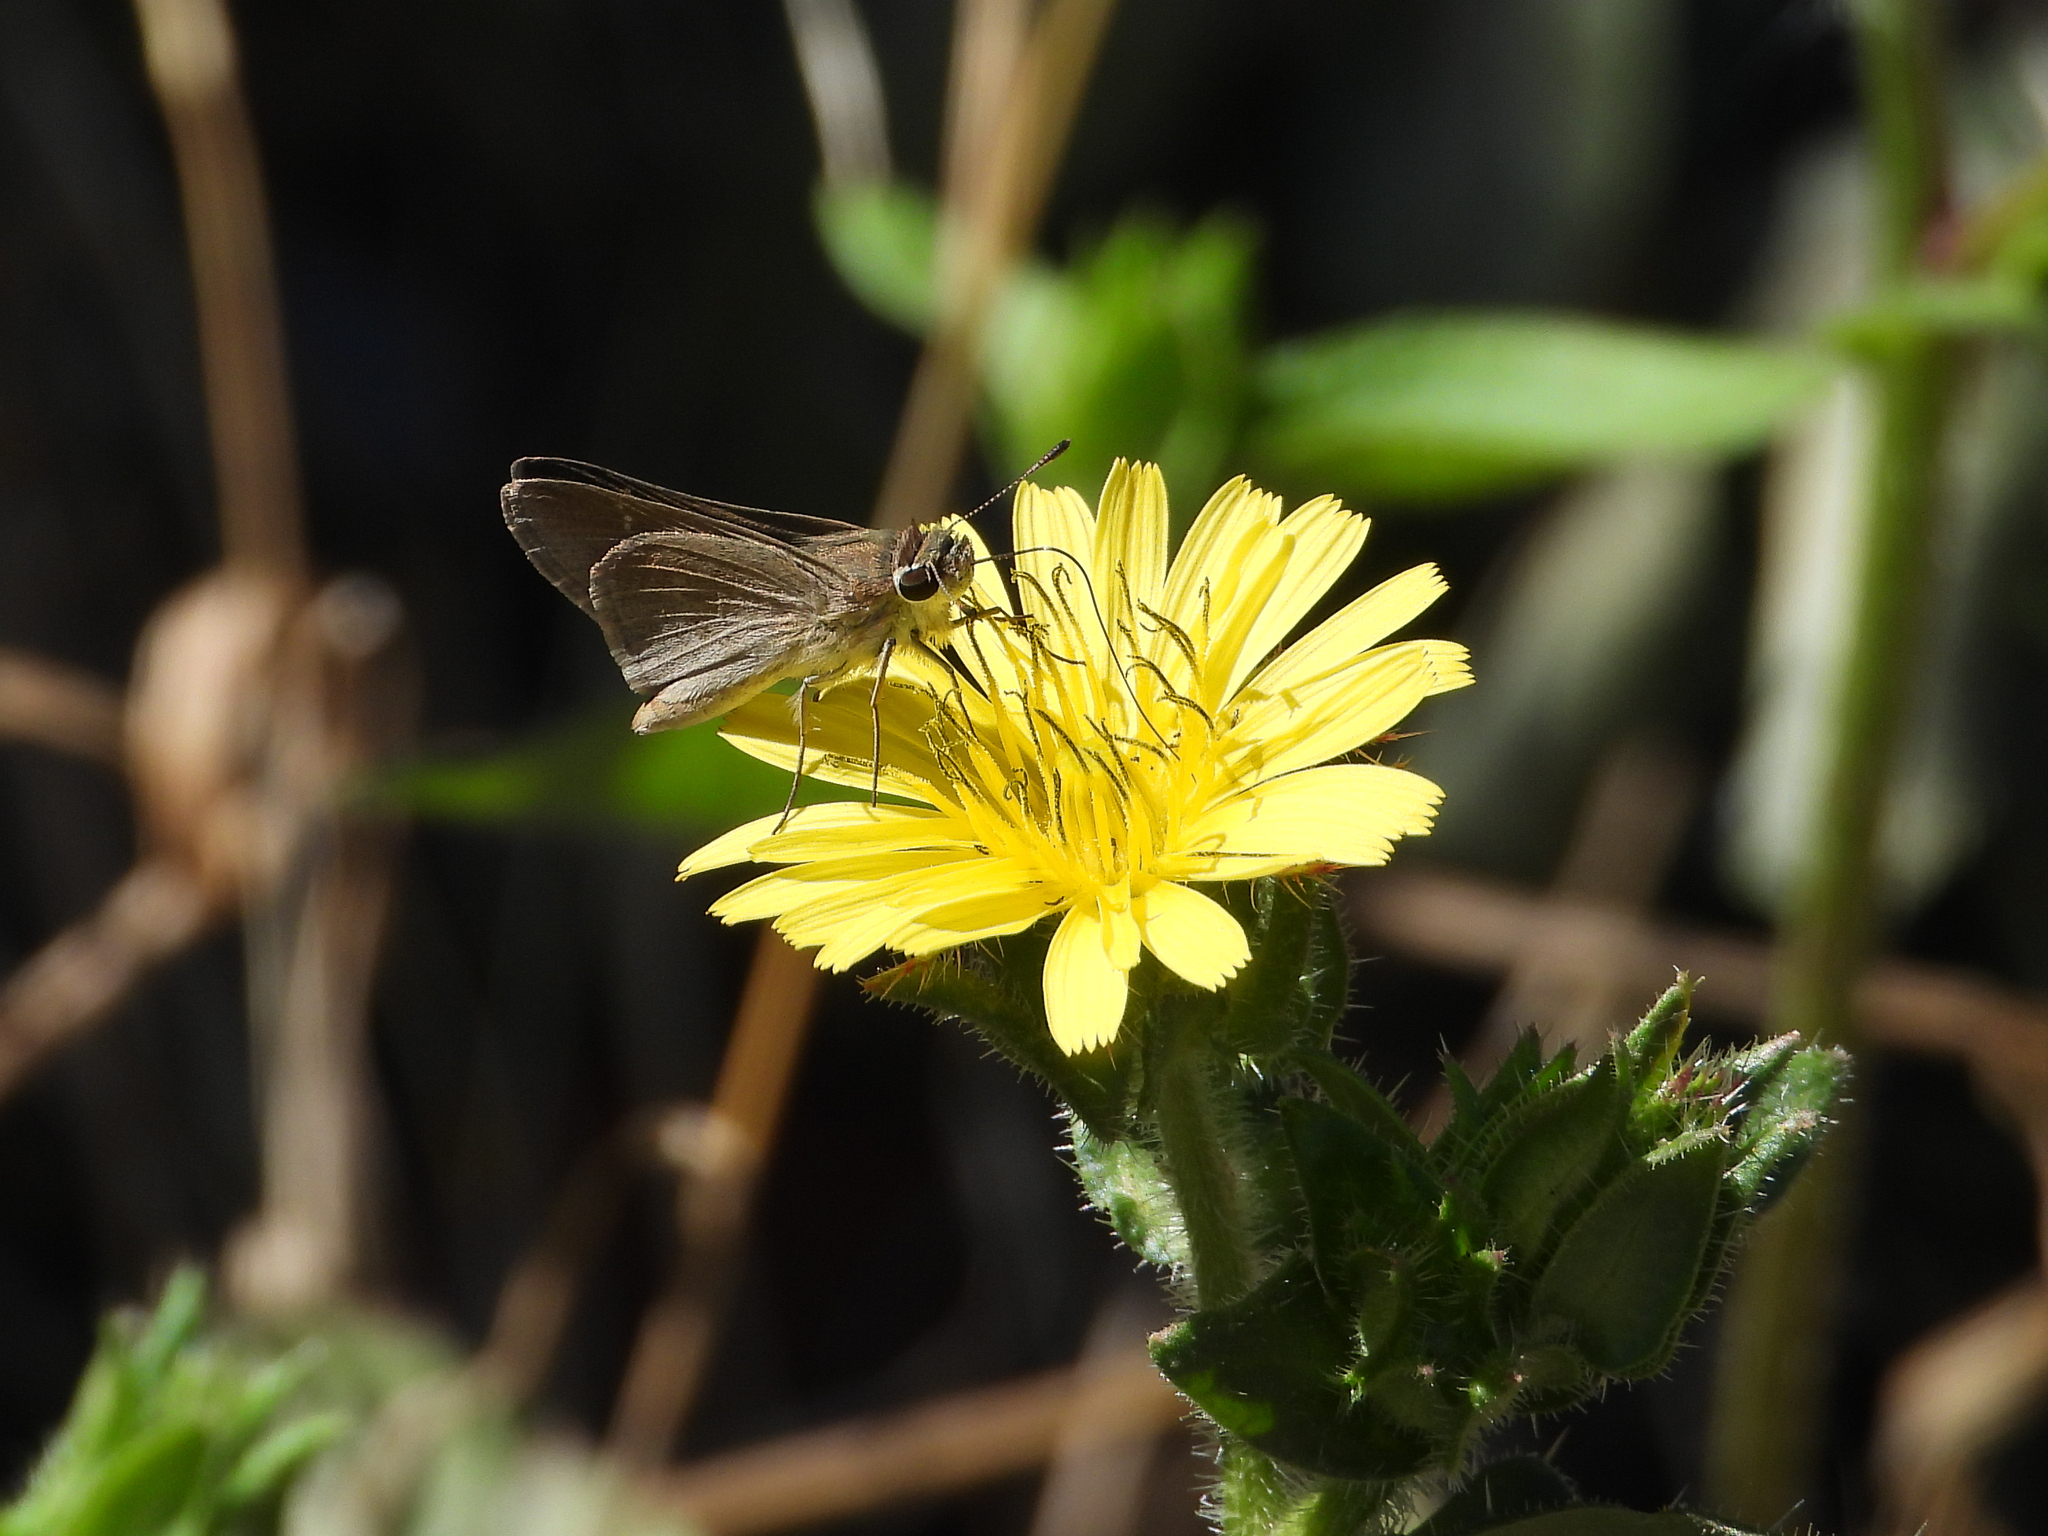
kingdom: Animalia
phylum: Arthropoda
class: Insecta
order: Lepidoptera
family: Hesperiidae
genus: Lerodea
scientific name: Lerodea eufala
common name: Eufala skipper
